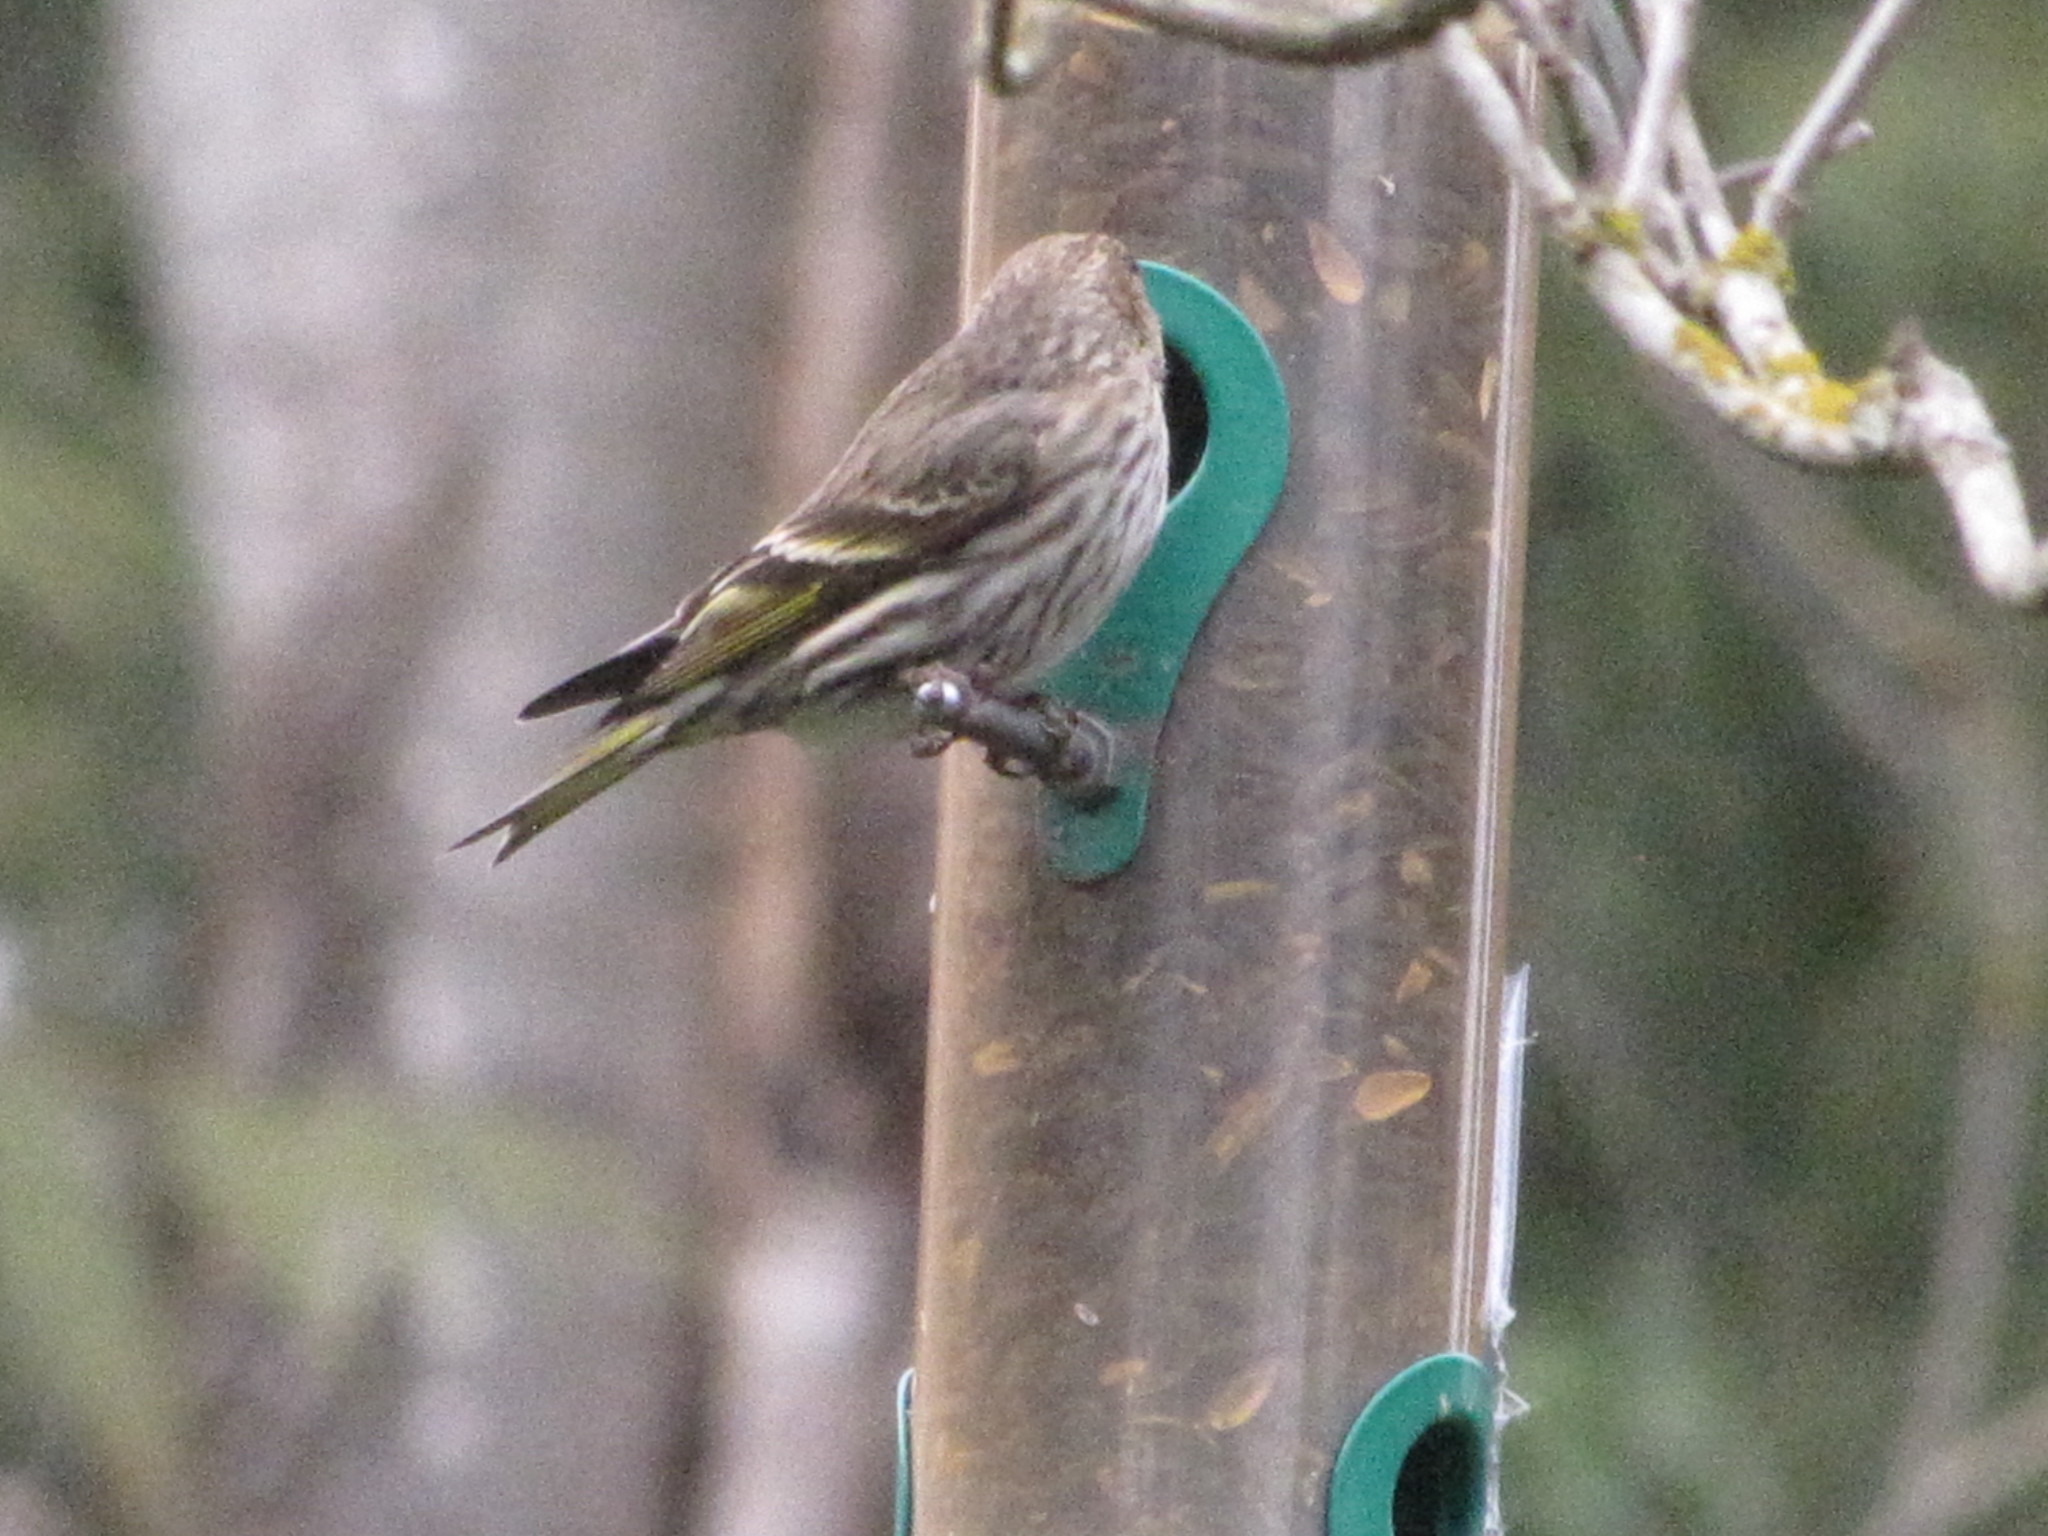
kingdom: Animalia
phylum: Chordata
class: Aves
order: Passeriformes
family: Fringillidae
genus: Spinus
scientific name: Spinus pinus
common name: Pine siskin
